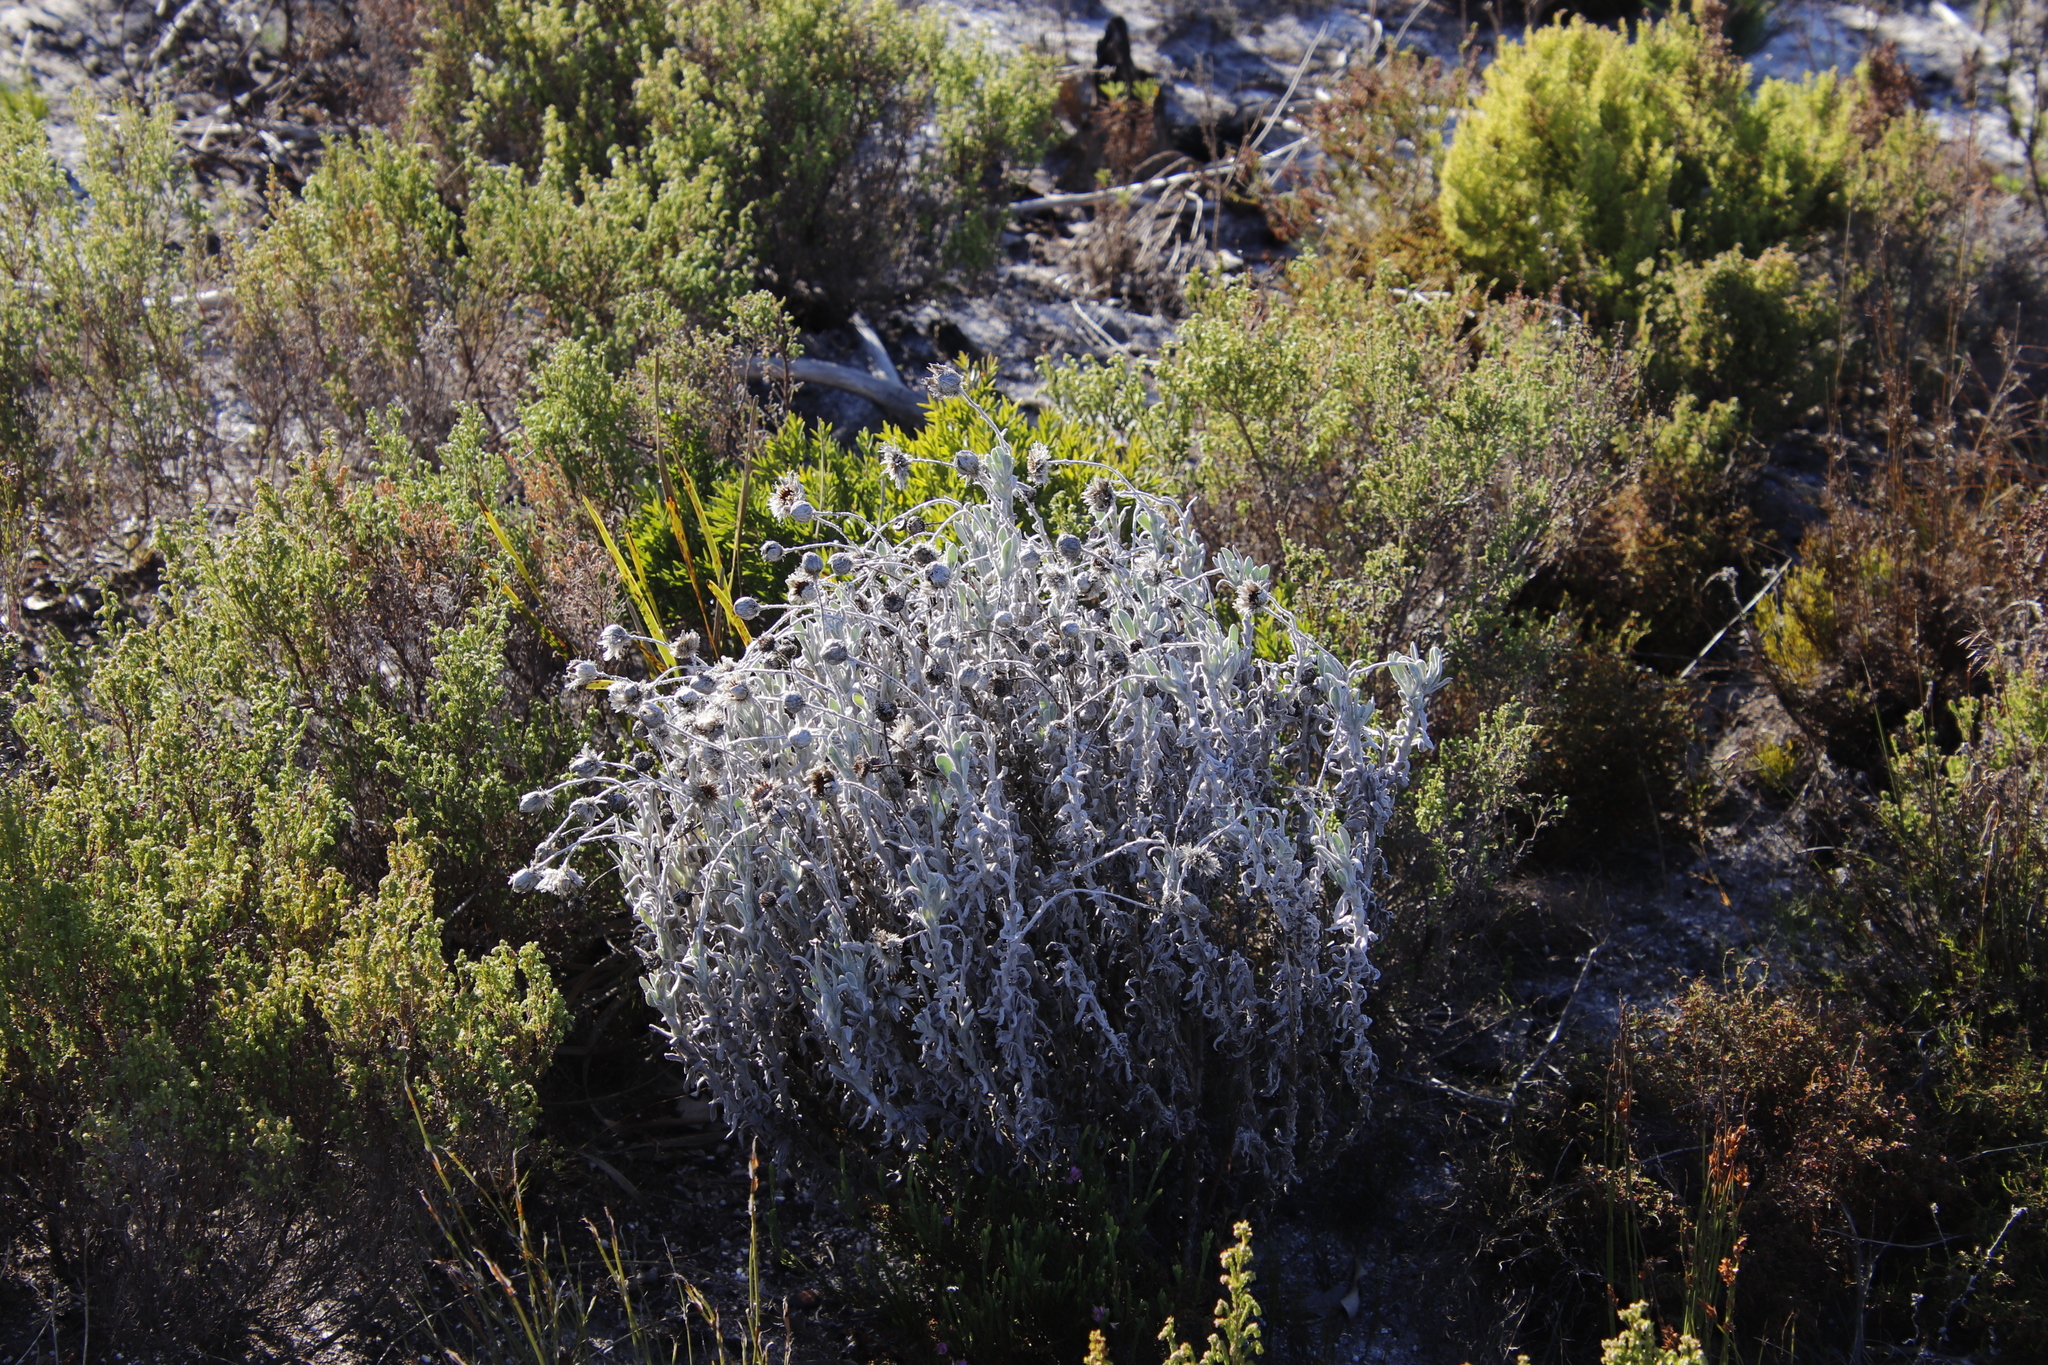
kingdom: Plantae
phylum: Tracheophyta
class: Magnoliopsida
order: Asterales
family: Asteraceae
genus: Syncarpha
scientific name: Syncarpha vestita
